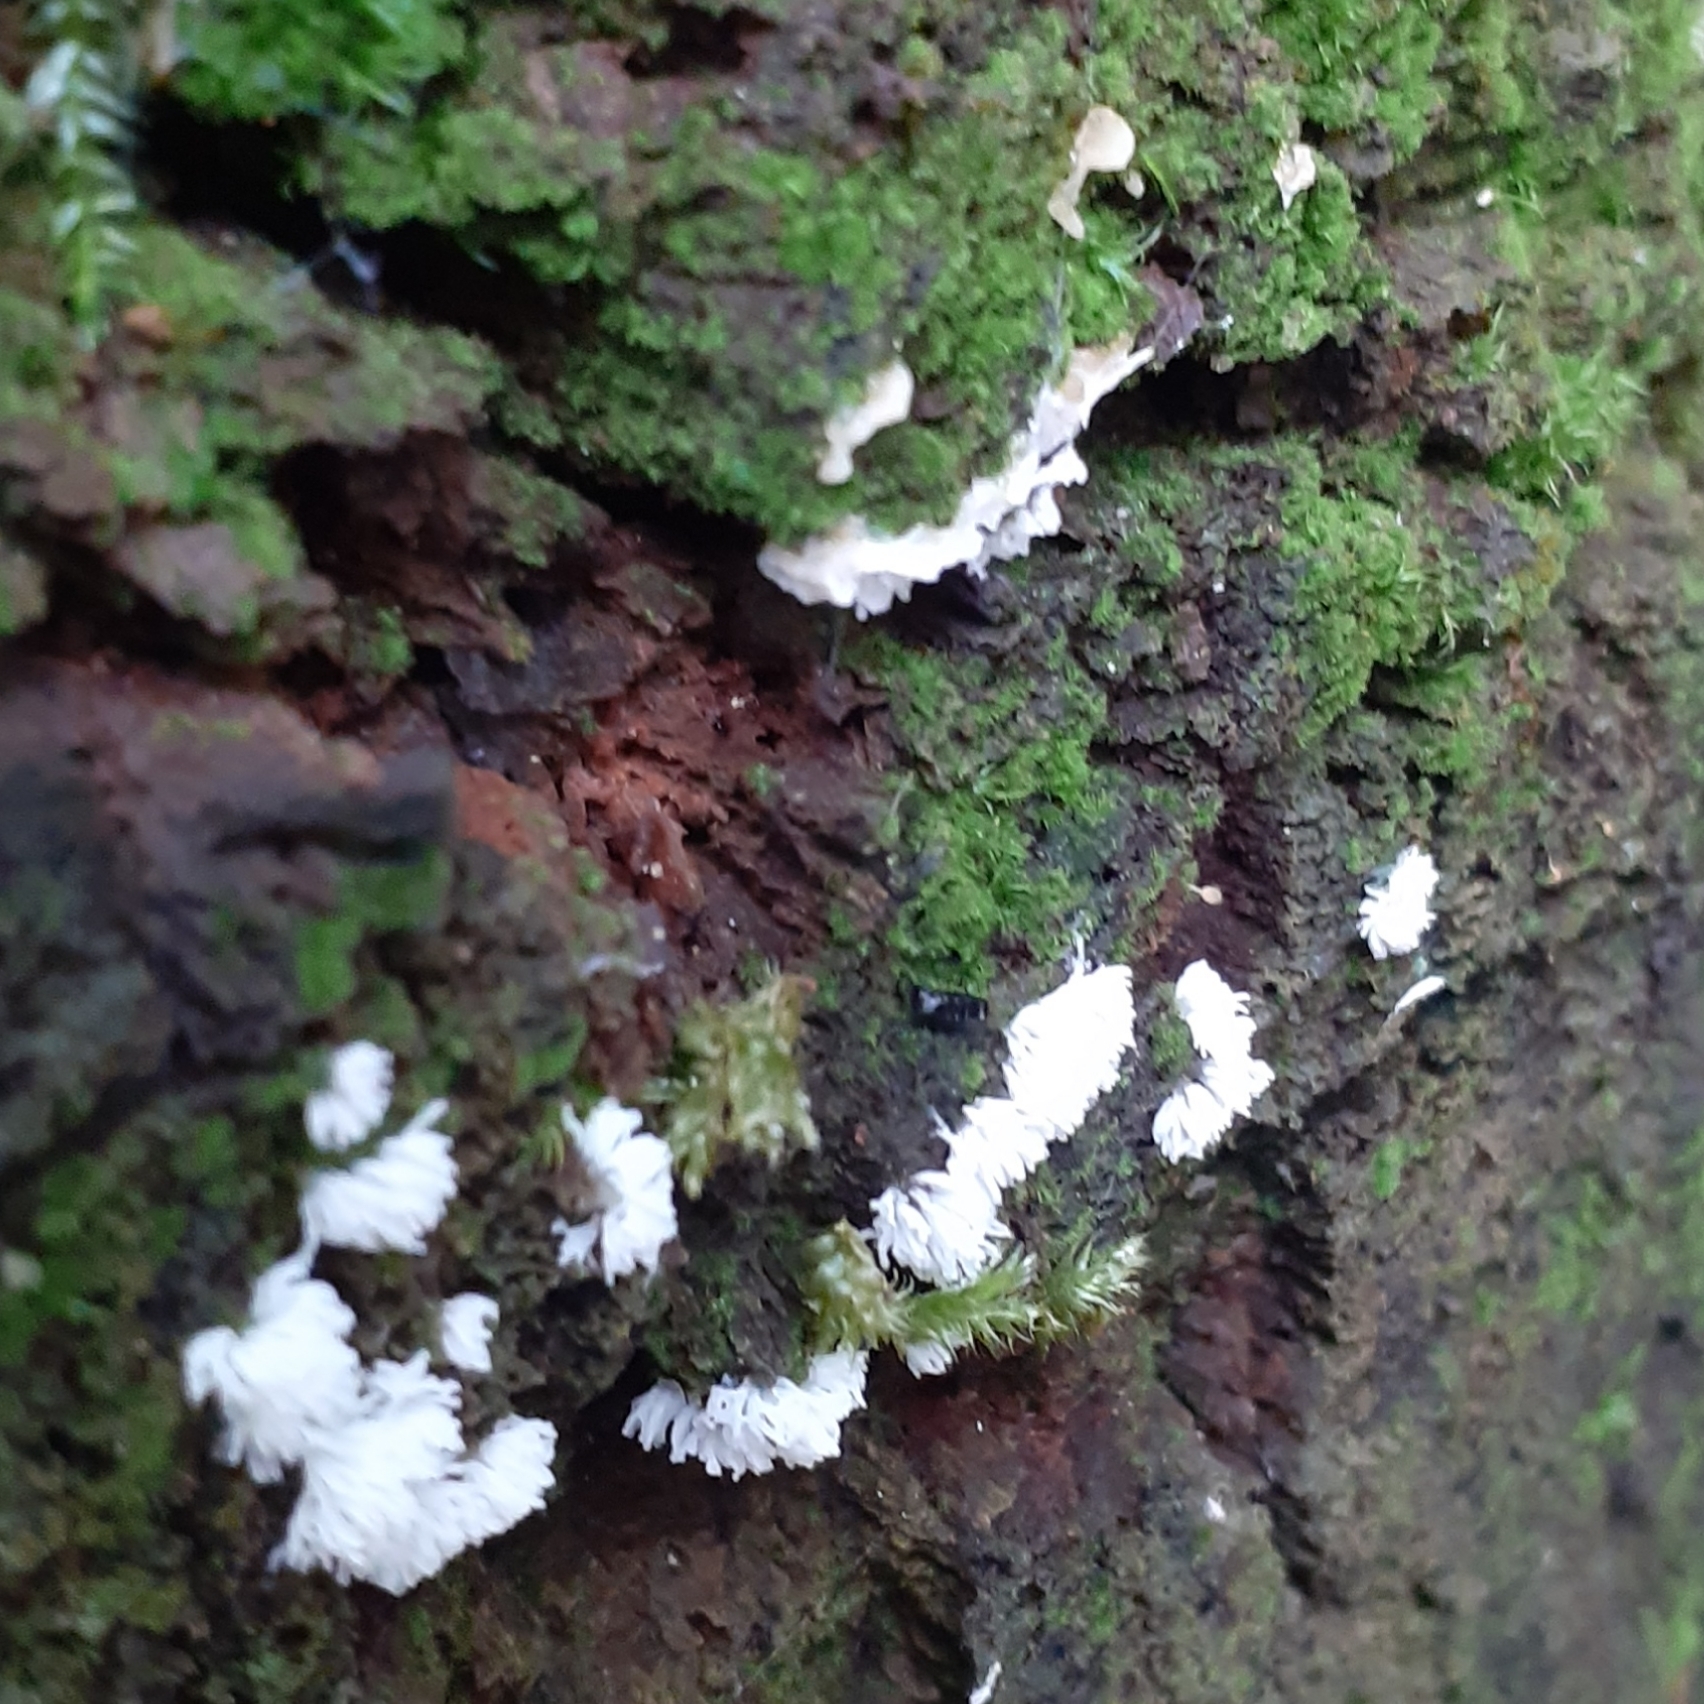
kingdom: Protozoa
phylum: Mycetozoa
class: Protosteliomycetes
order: Ceratiomyxales
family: Ceratiomyxaceae
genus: Ceratiomyxa
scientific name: Ceratiomyxa fruticulosa
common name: Honeycomb coral slime mold
